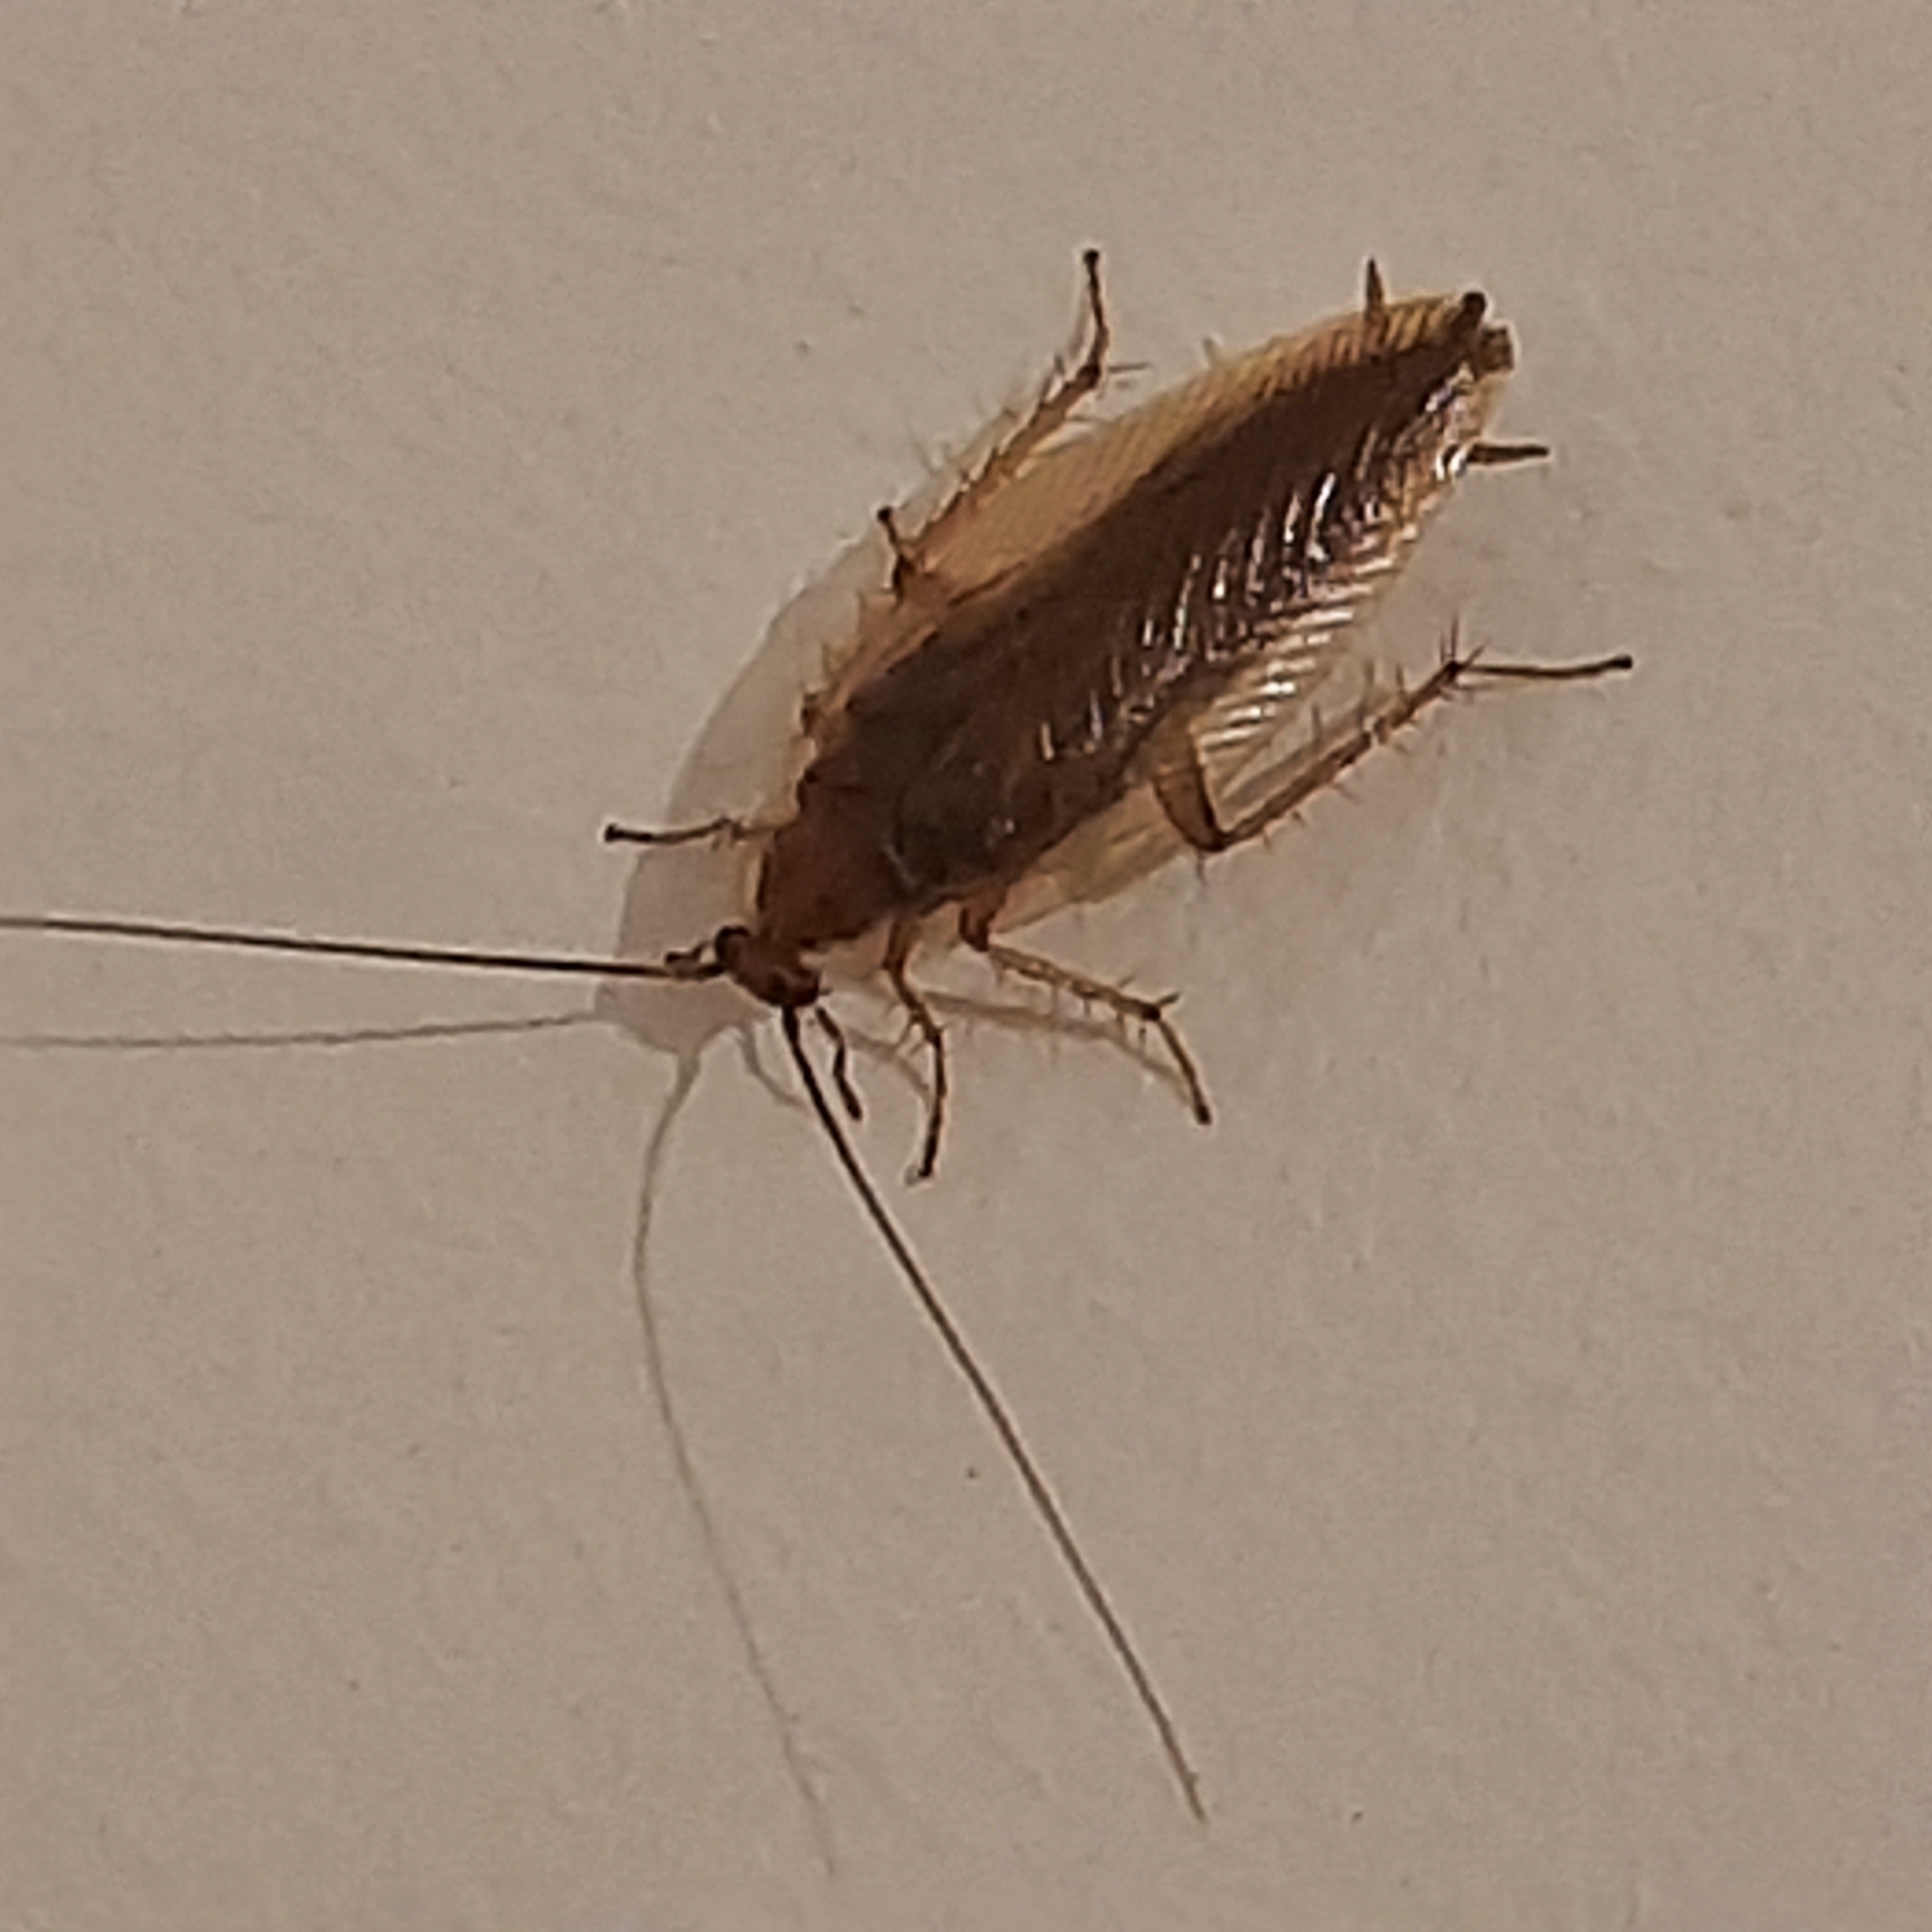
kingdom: Animalia
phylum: Arthropoda
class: Insecta
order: Blattodea
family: Ectobiidae
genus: Ectobius
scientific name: Ectobius vittiventris
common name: Garden cockroach
